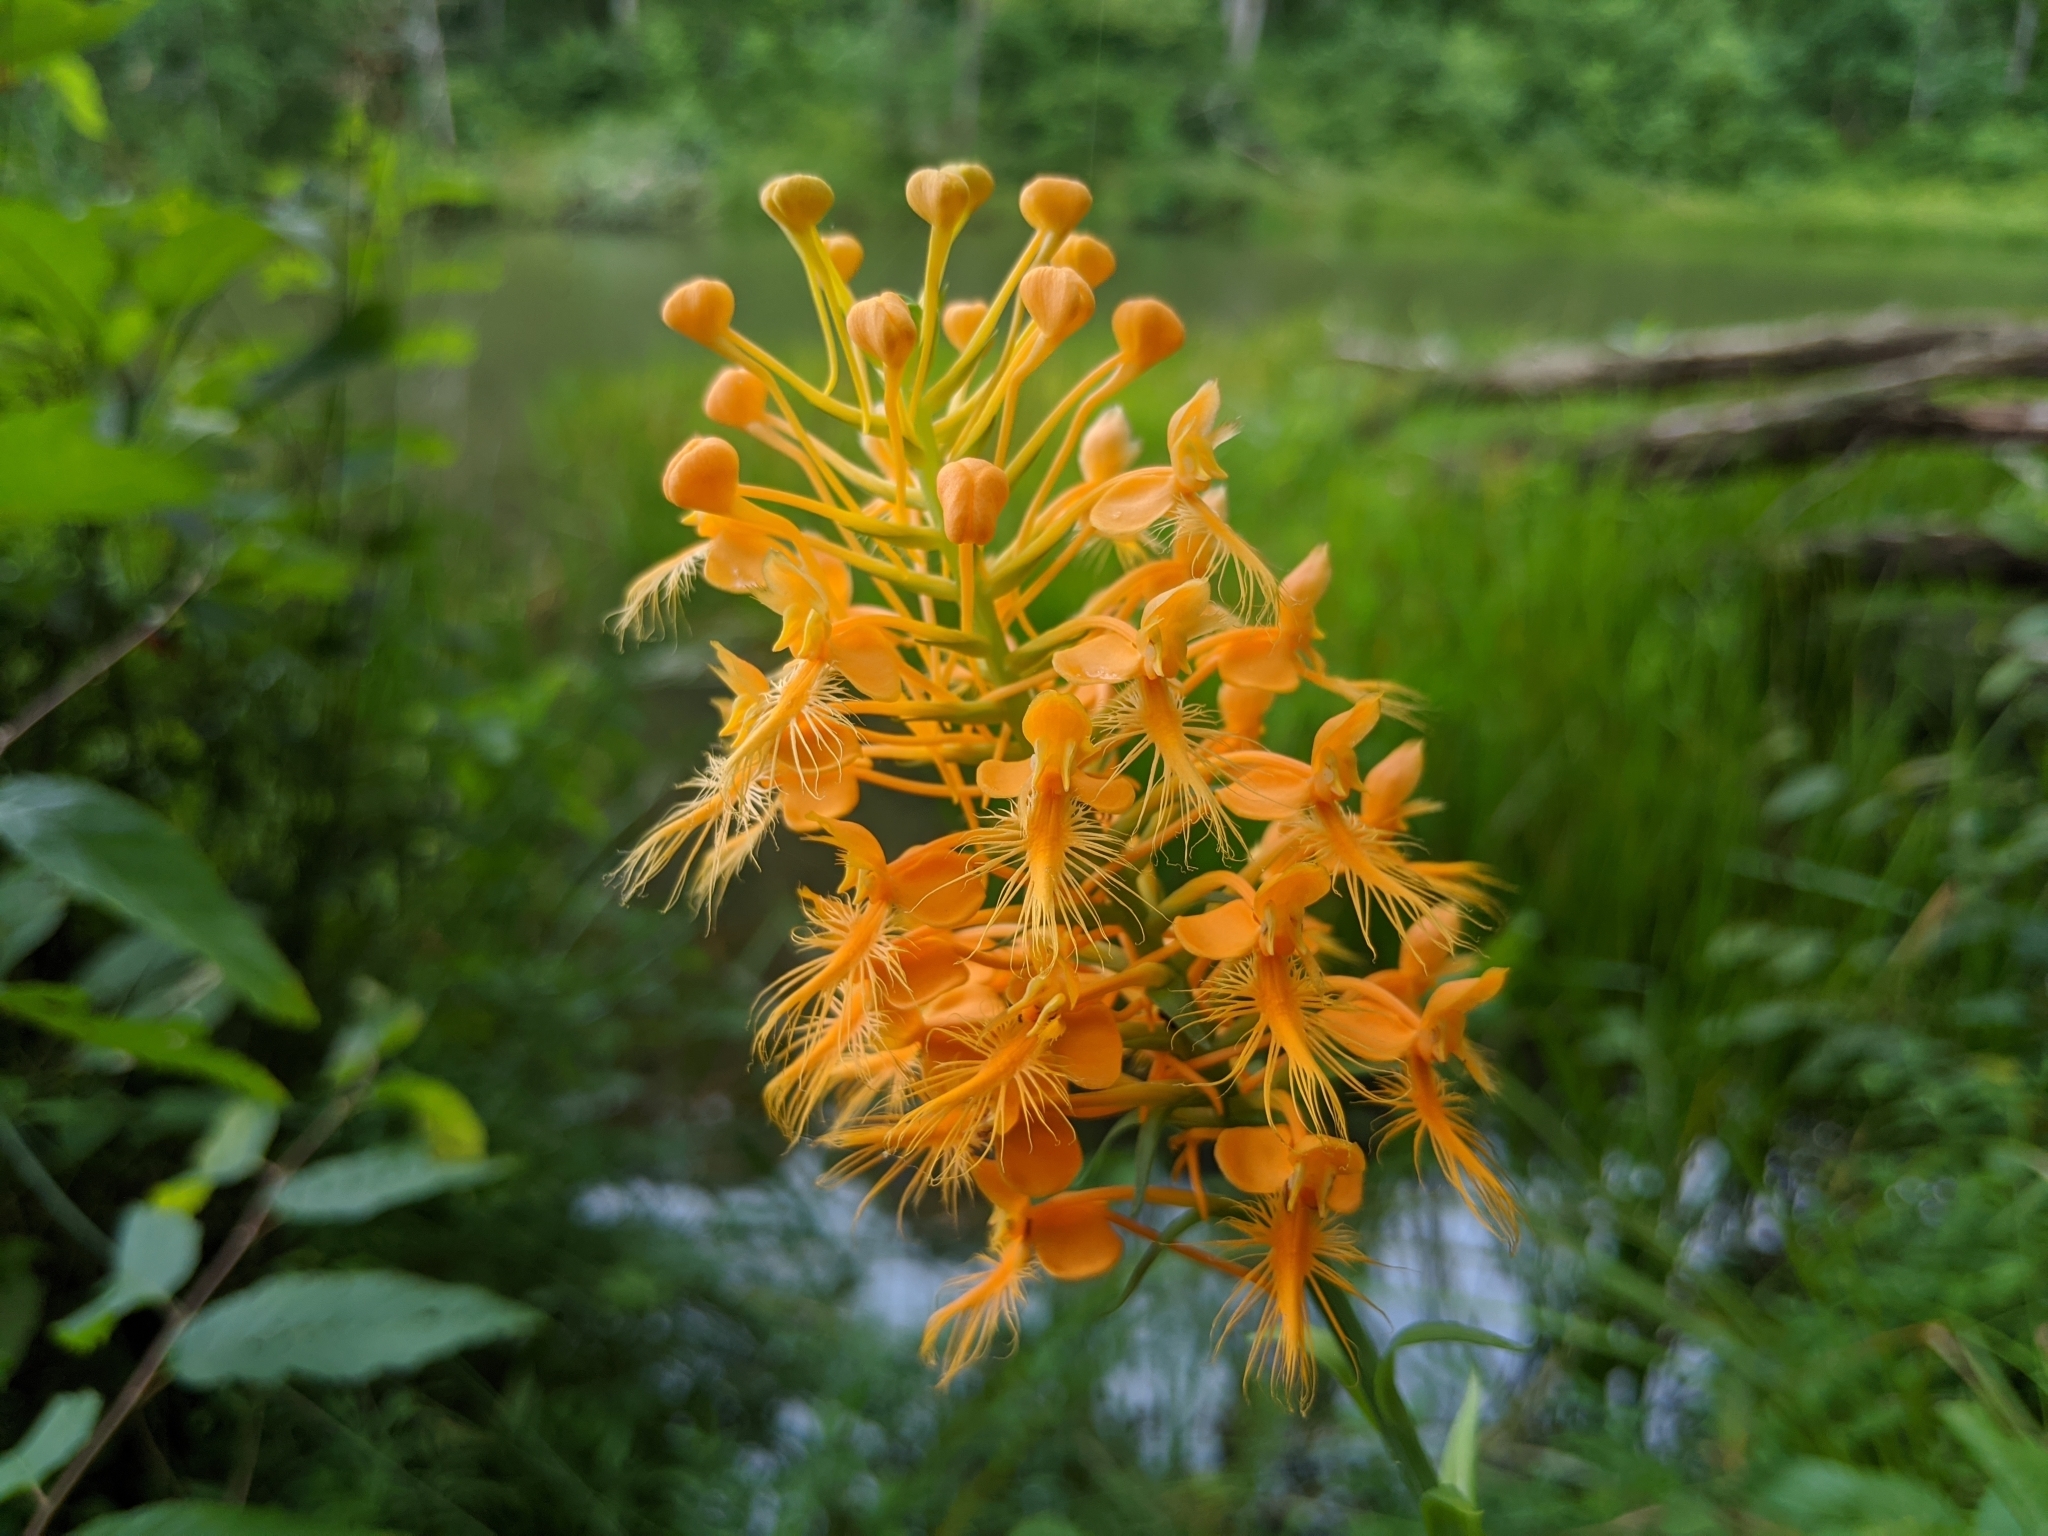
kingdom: Plantae
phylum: Tracheophyta
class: Liliopsida
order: Asparagales
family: Orchidaceae
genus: Platanthera
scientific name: Platanthera ciliaris
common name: Yellow fringed orchid
